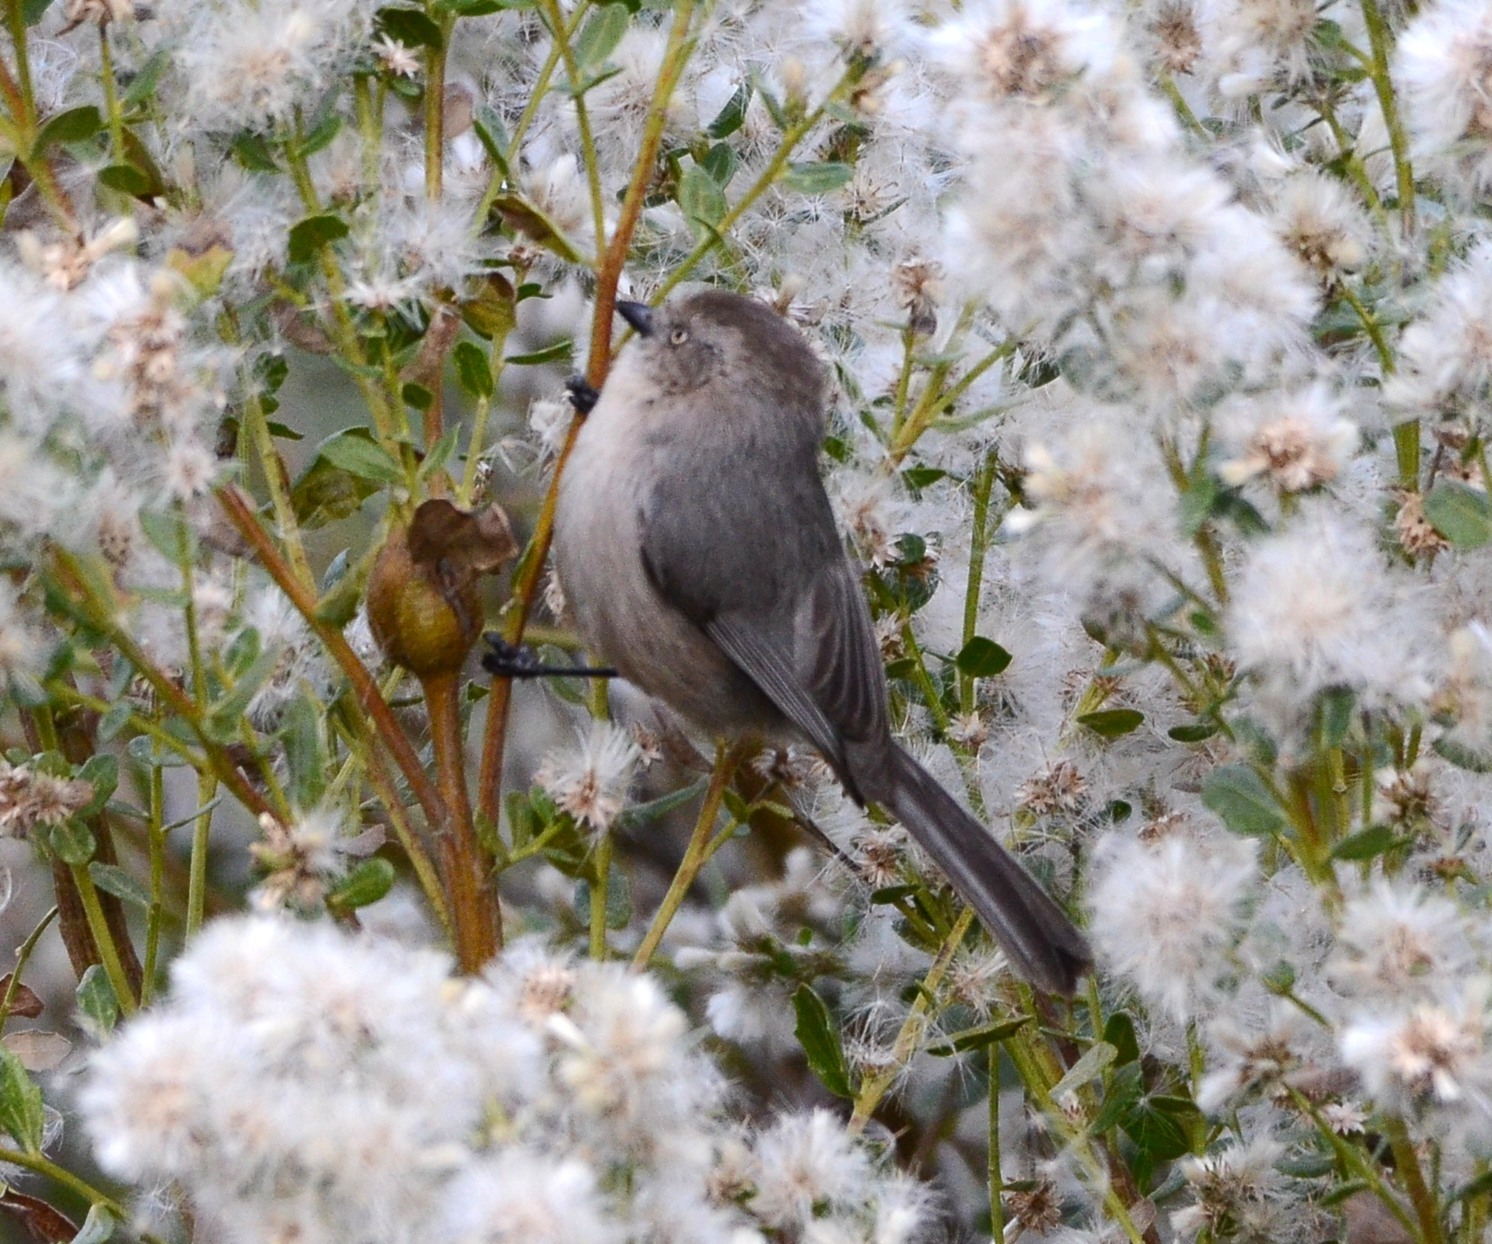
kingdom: Animalia
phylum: Chordata
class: Aves
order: Passeriformes
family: Aegithalidae
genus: Psaltriparus
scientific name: Psaltriparus minimus
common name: American bushtit
